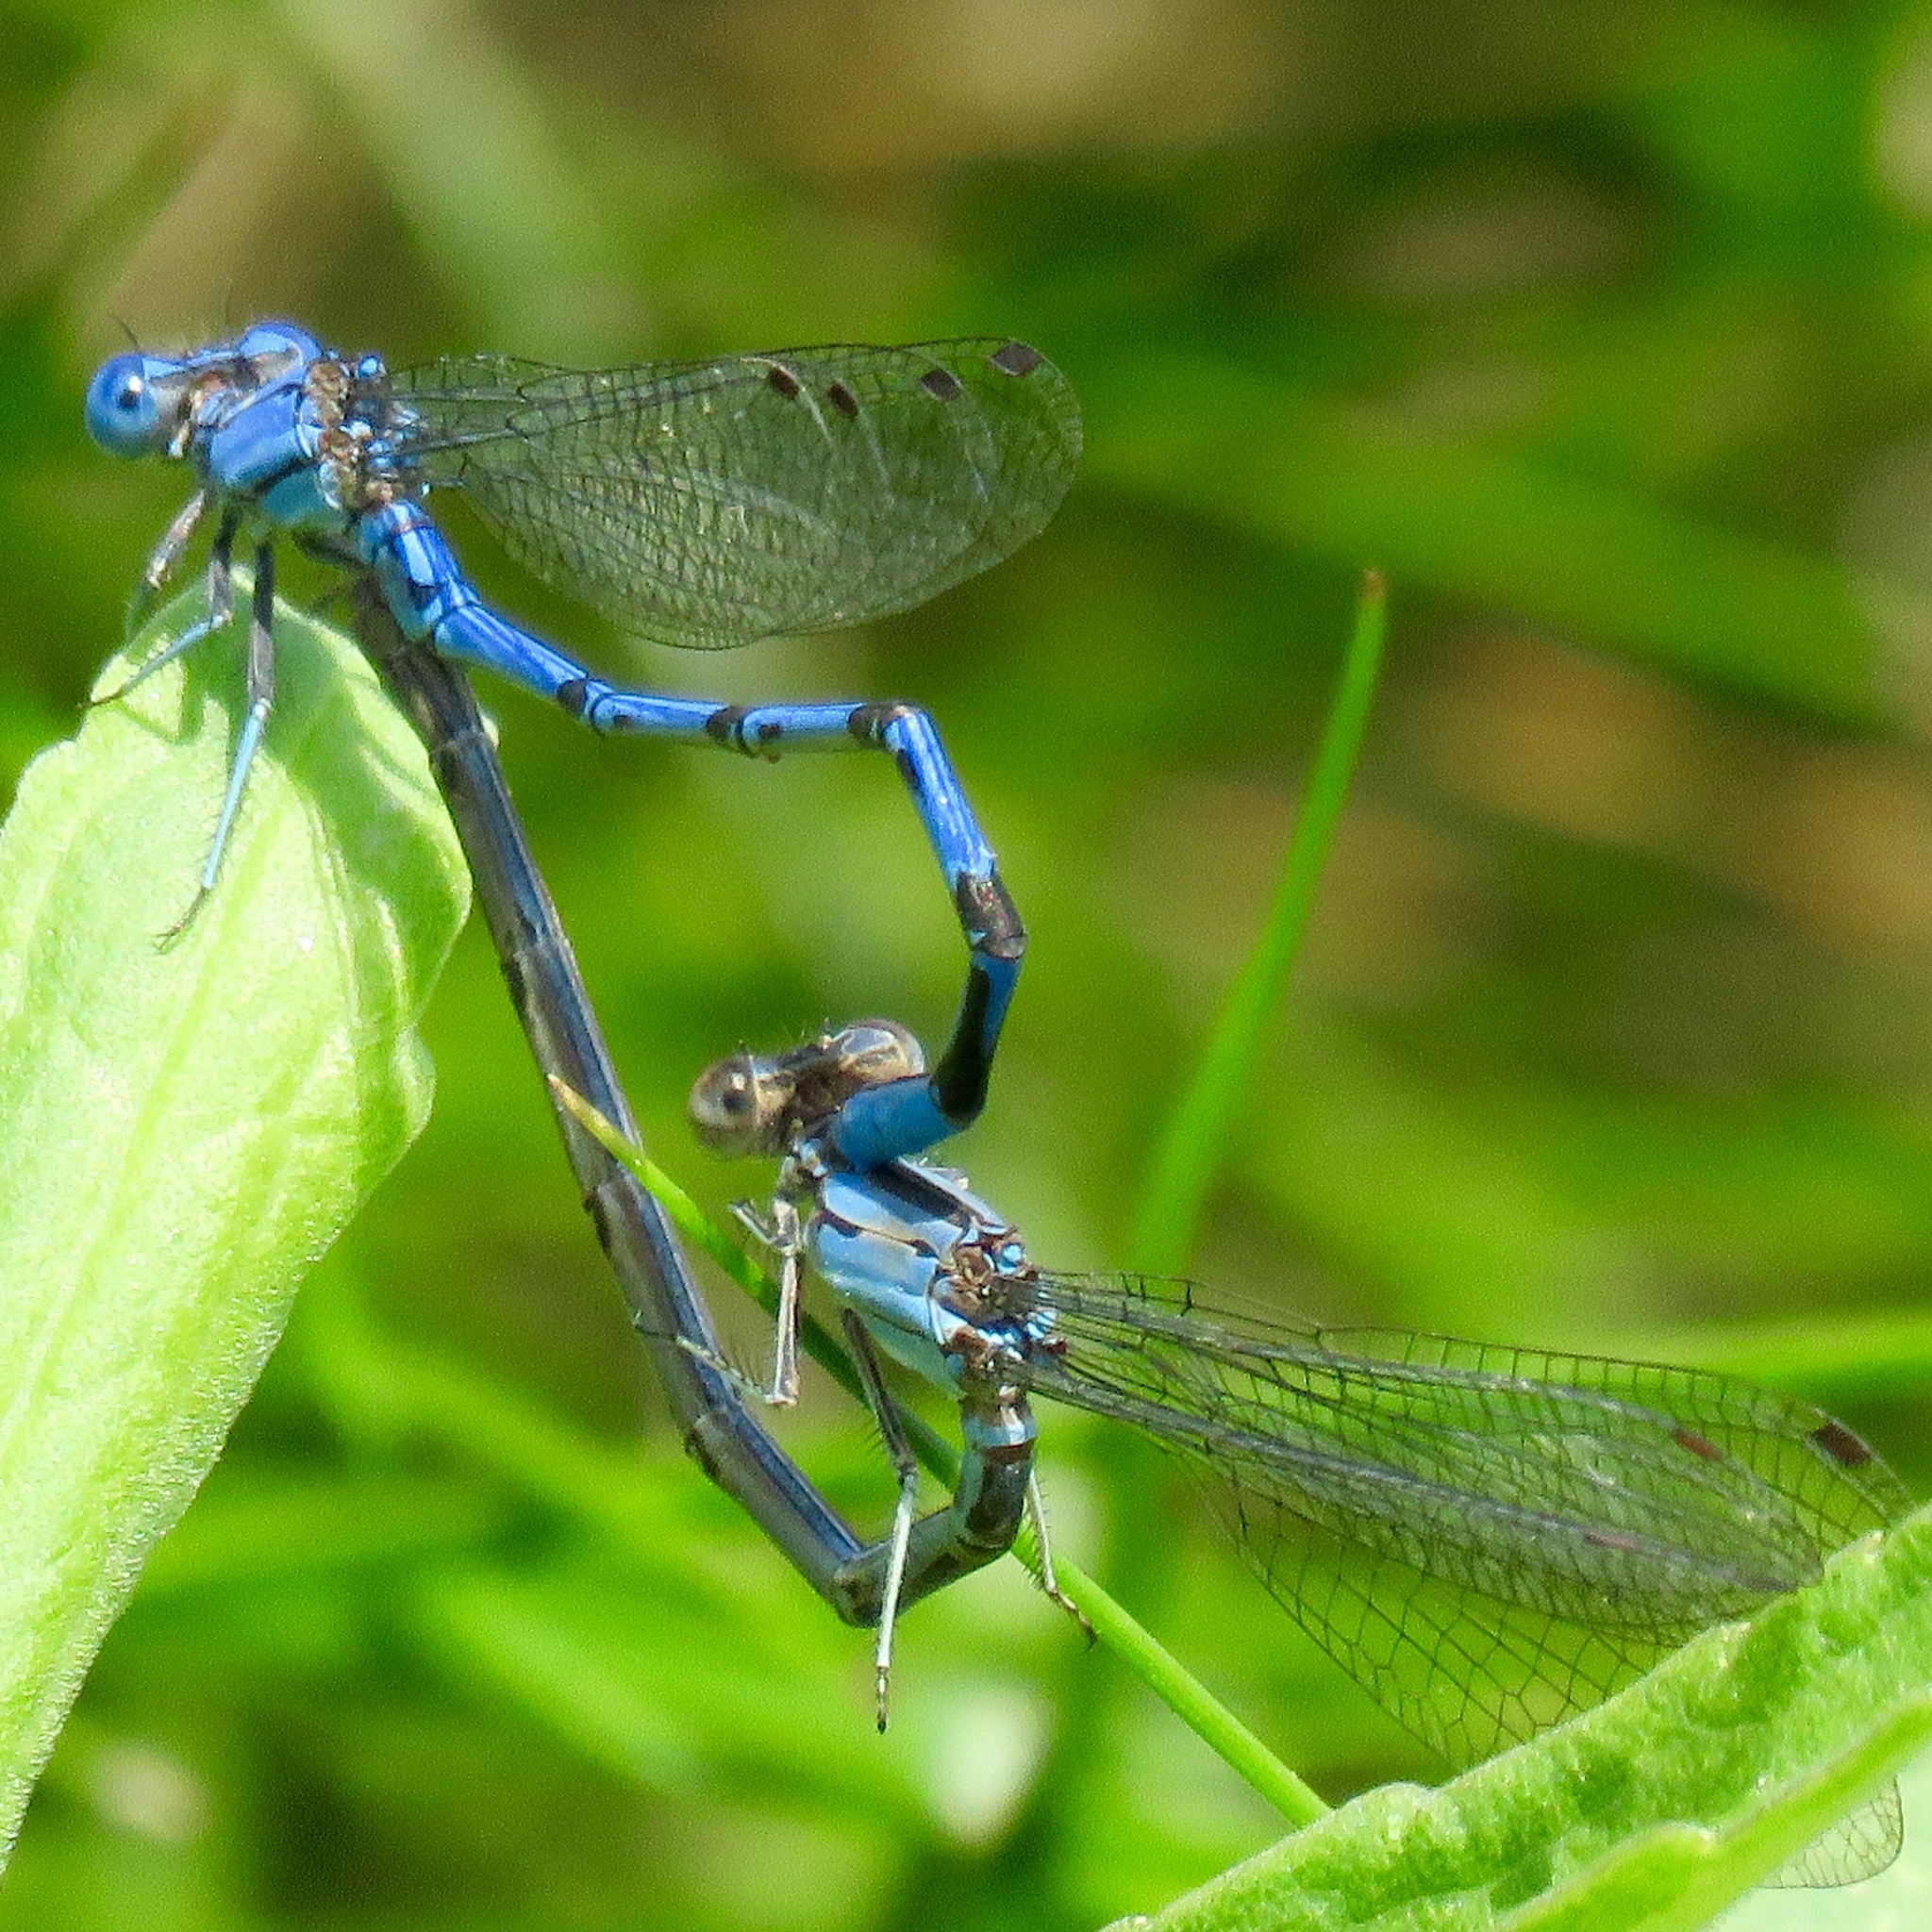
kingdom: Animalia
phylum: Arthropoda
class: Insecta
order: Odonata
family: Coenagrionidae
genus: Argia
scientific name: Argia funebris
